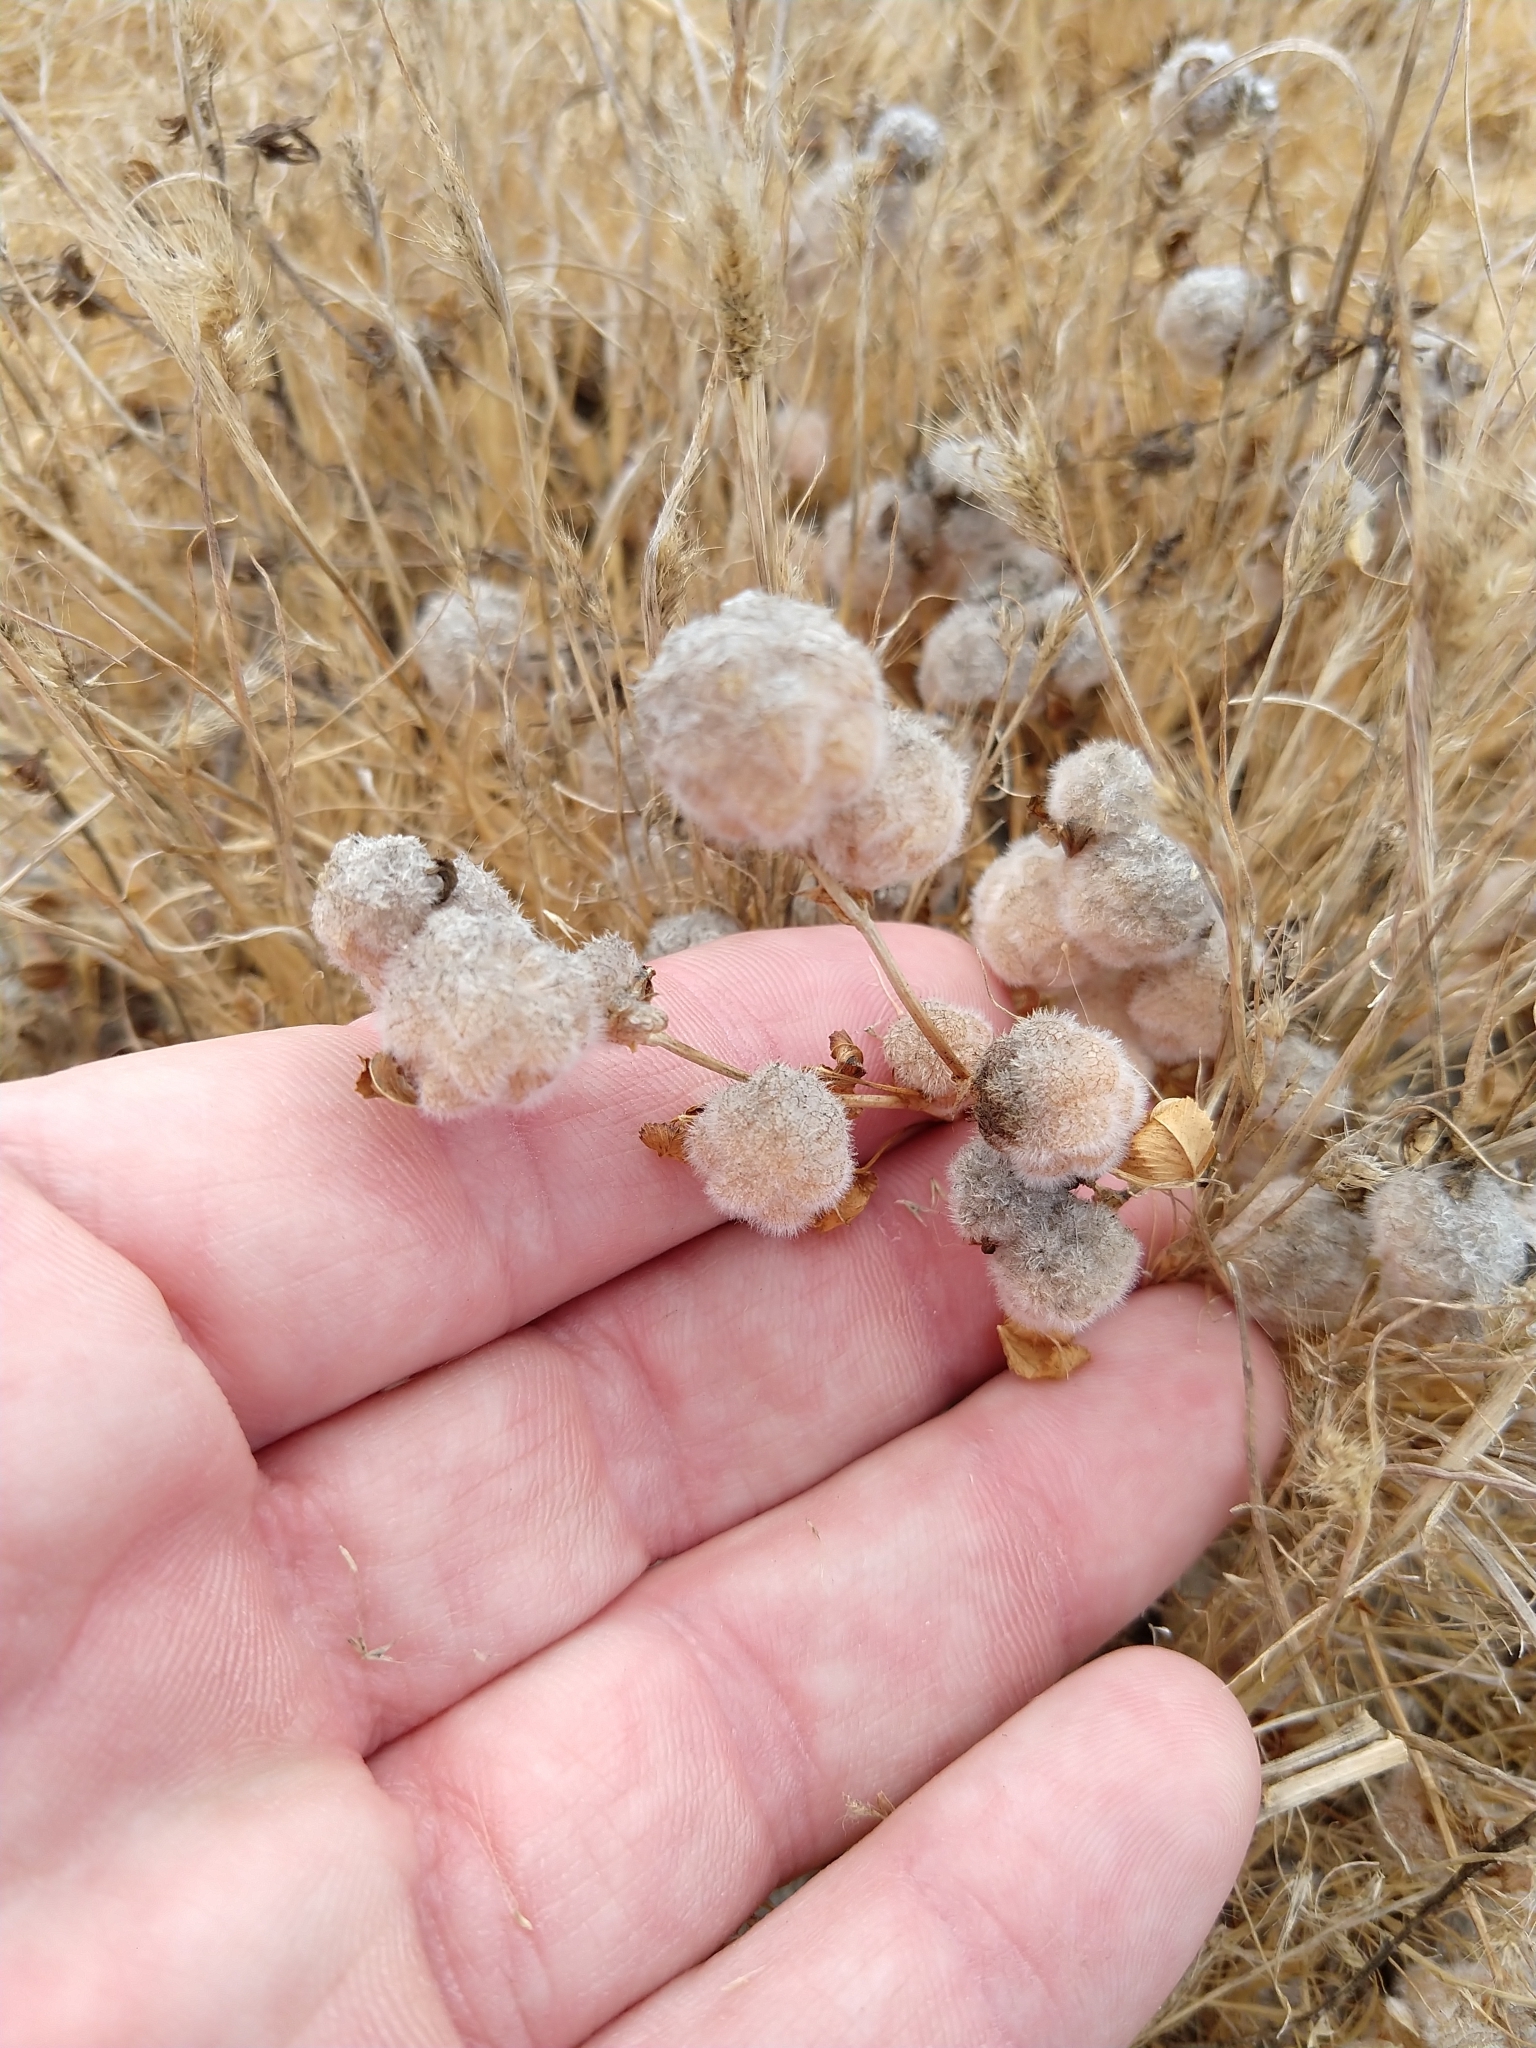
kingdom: Plantae
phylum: Tracheophyta
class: Magnoliopsida
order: Fabales
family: Fabaceae
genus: Trifolium
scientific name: Trifolium tomentosum
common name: Woolly clover
